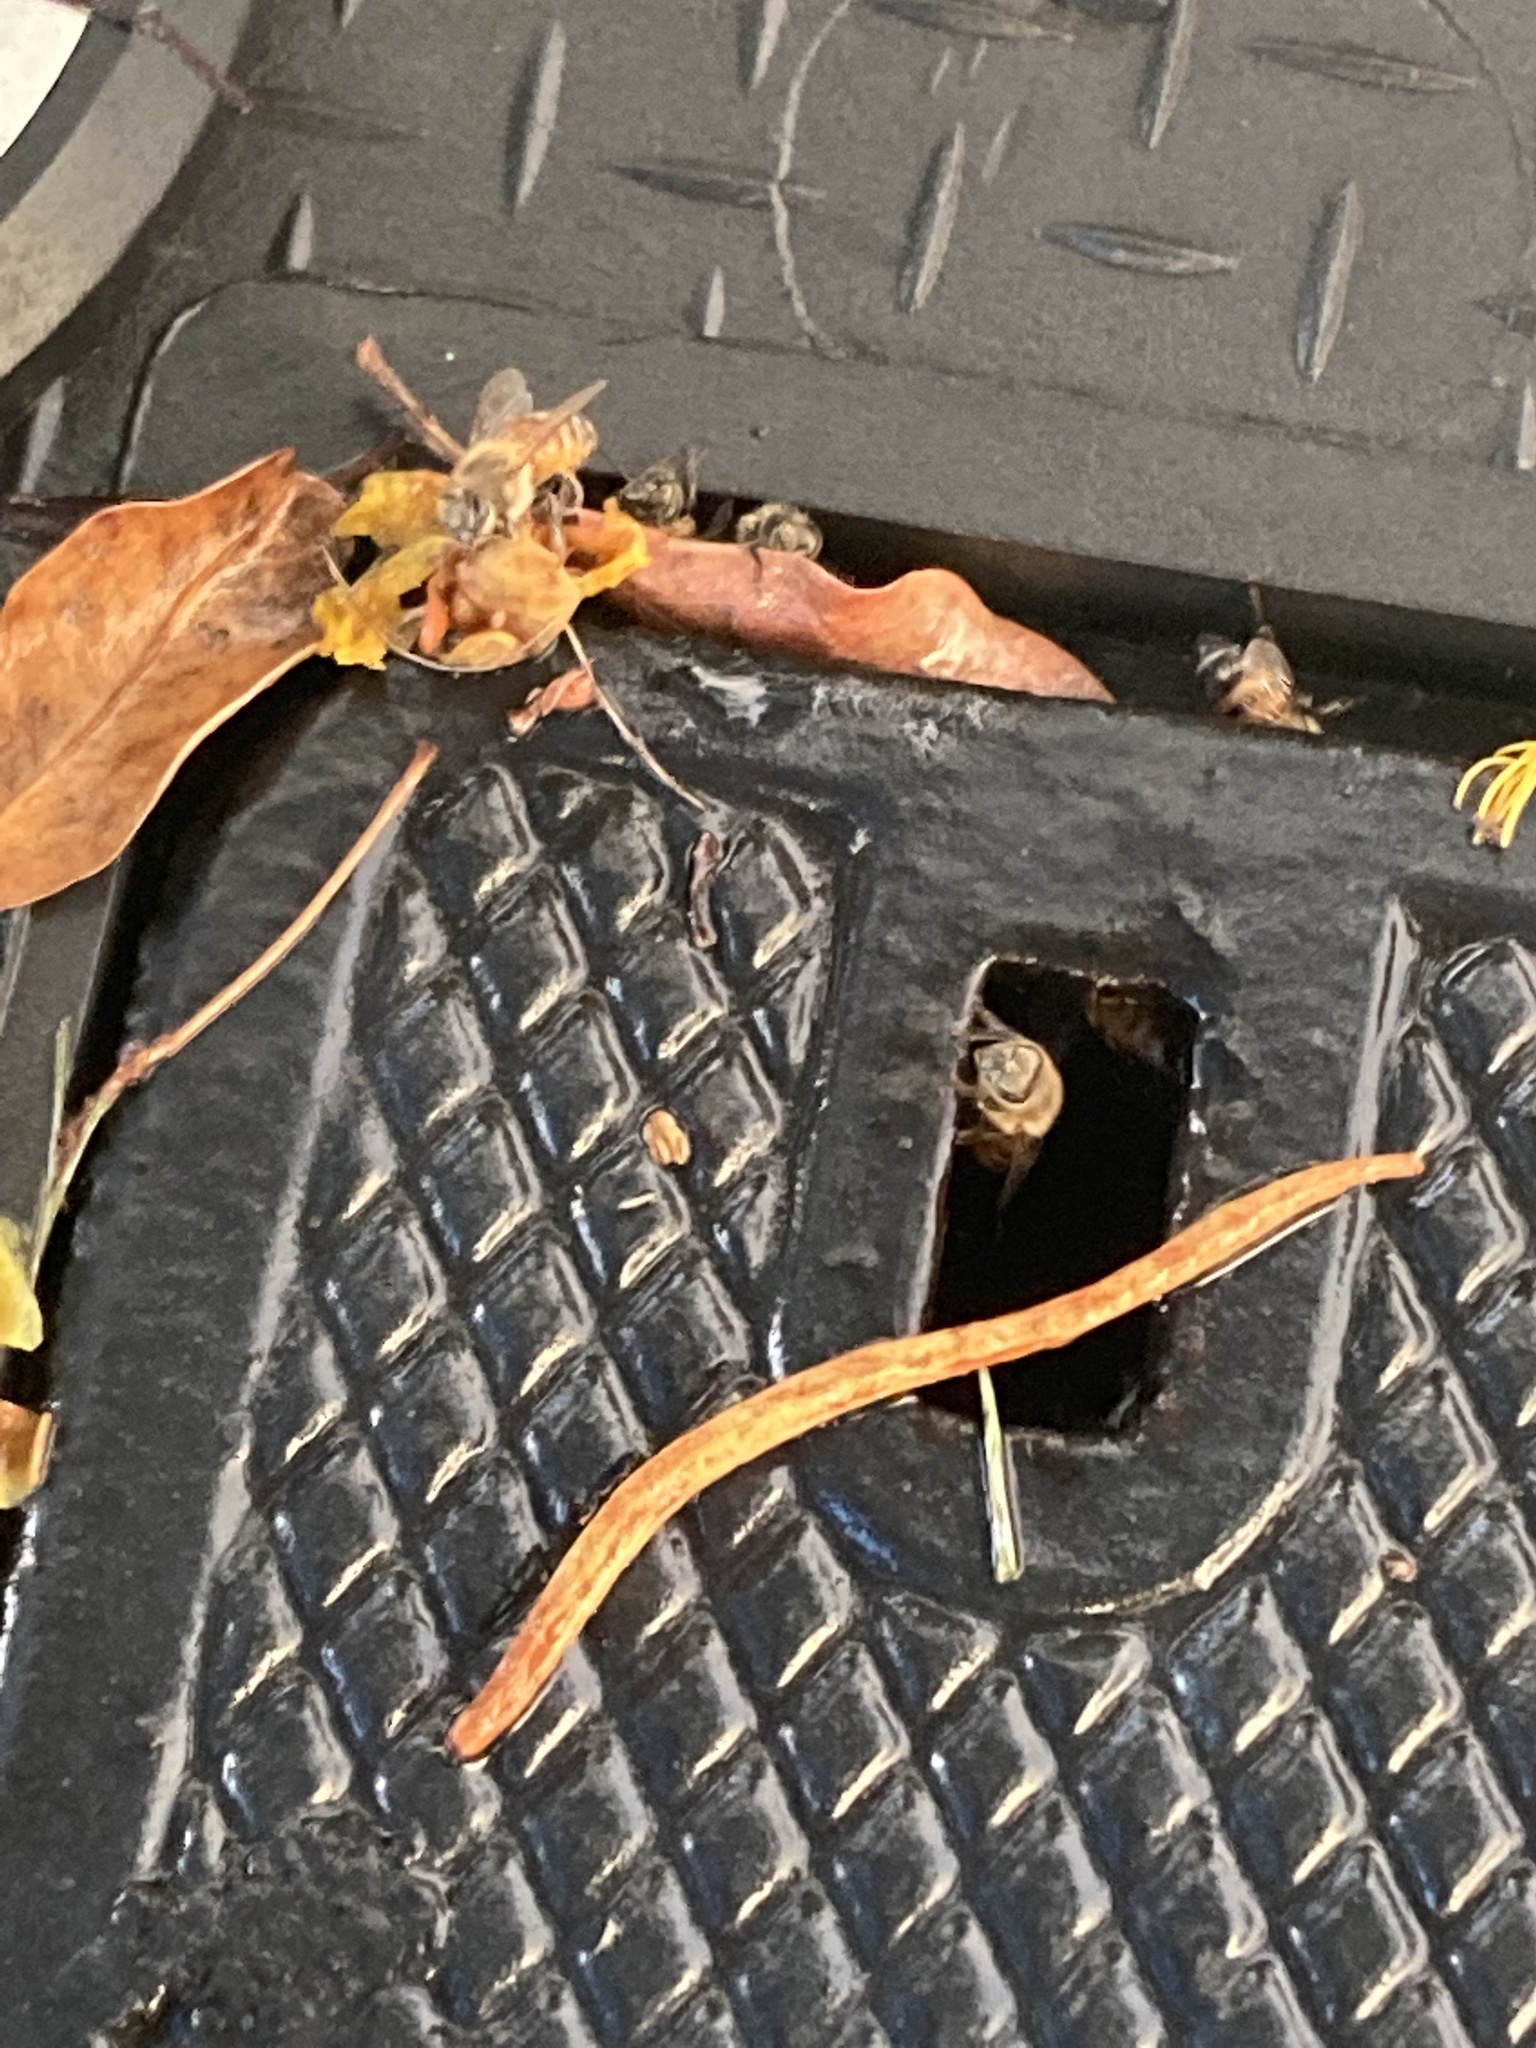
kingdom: Animalia
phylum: Arthropoda
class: Insecta
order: Hymenoptera
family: Apidae
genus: Apis
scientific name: Apis mellifera
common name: Honey bee
